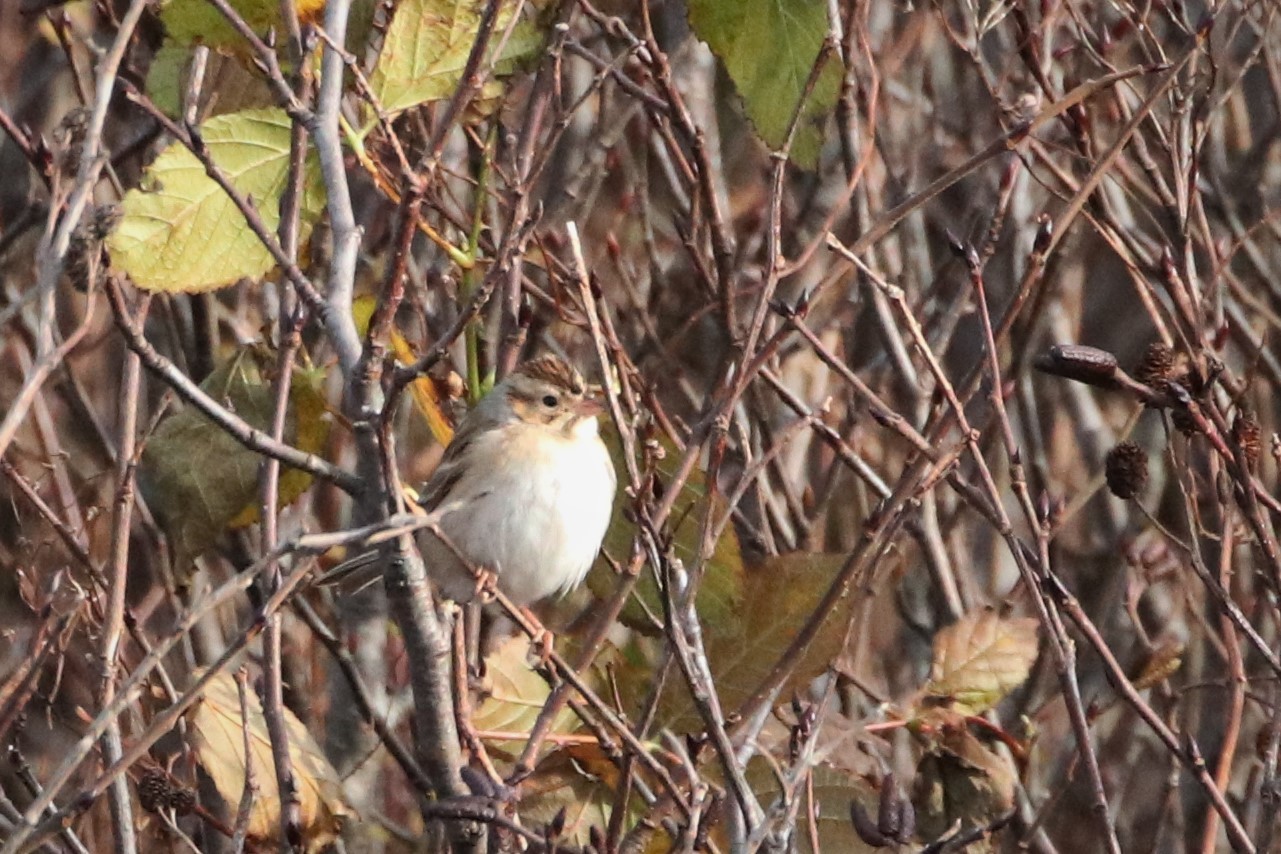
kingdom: Animalia
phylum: Chordata
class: Aves
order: Passeriformes
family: Passerellidae
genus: Spizella
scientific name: Spizella pallida
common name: Clay-colored sparrow
